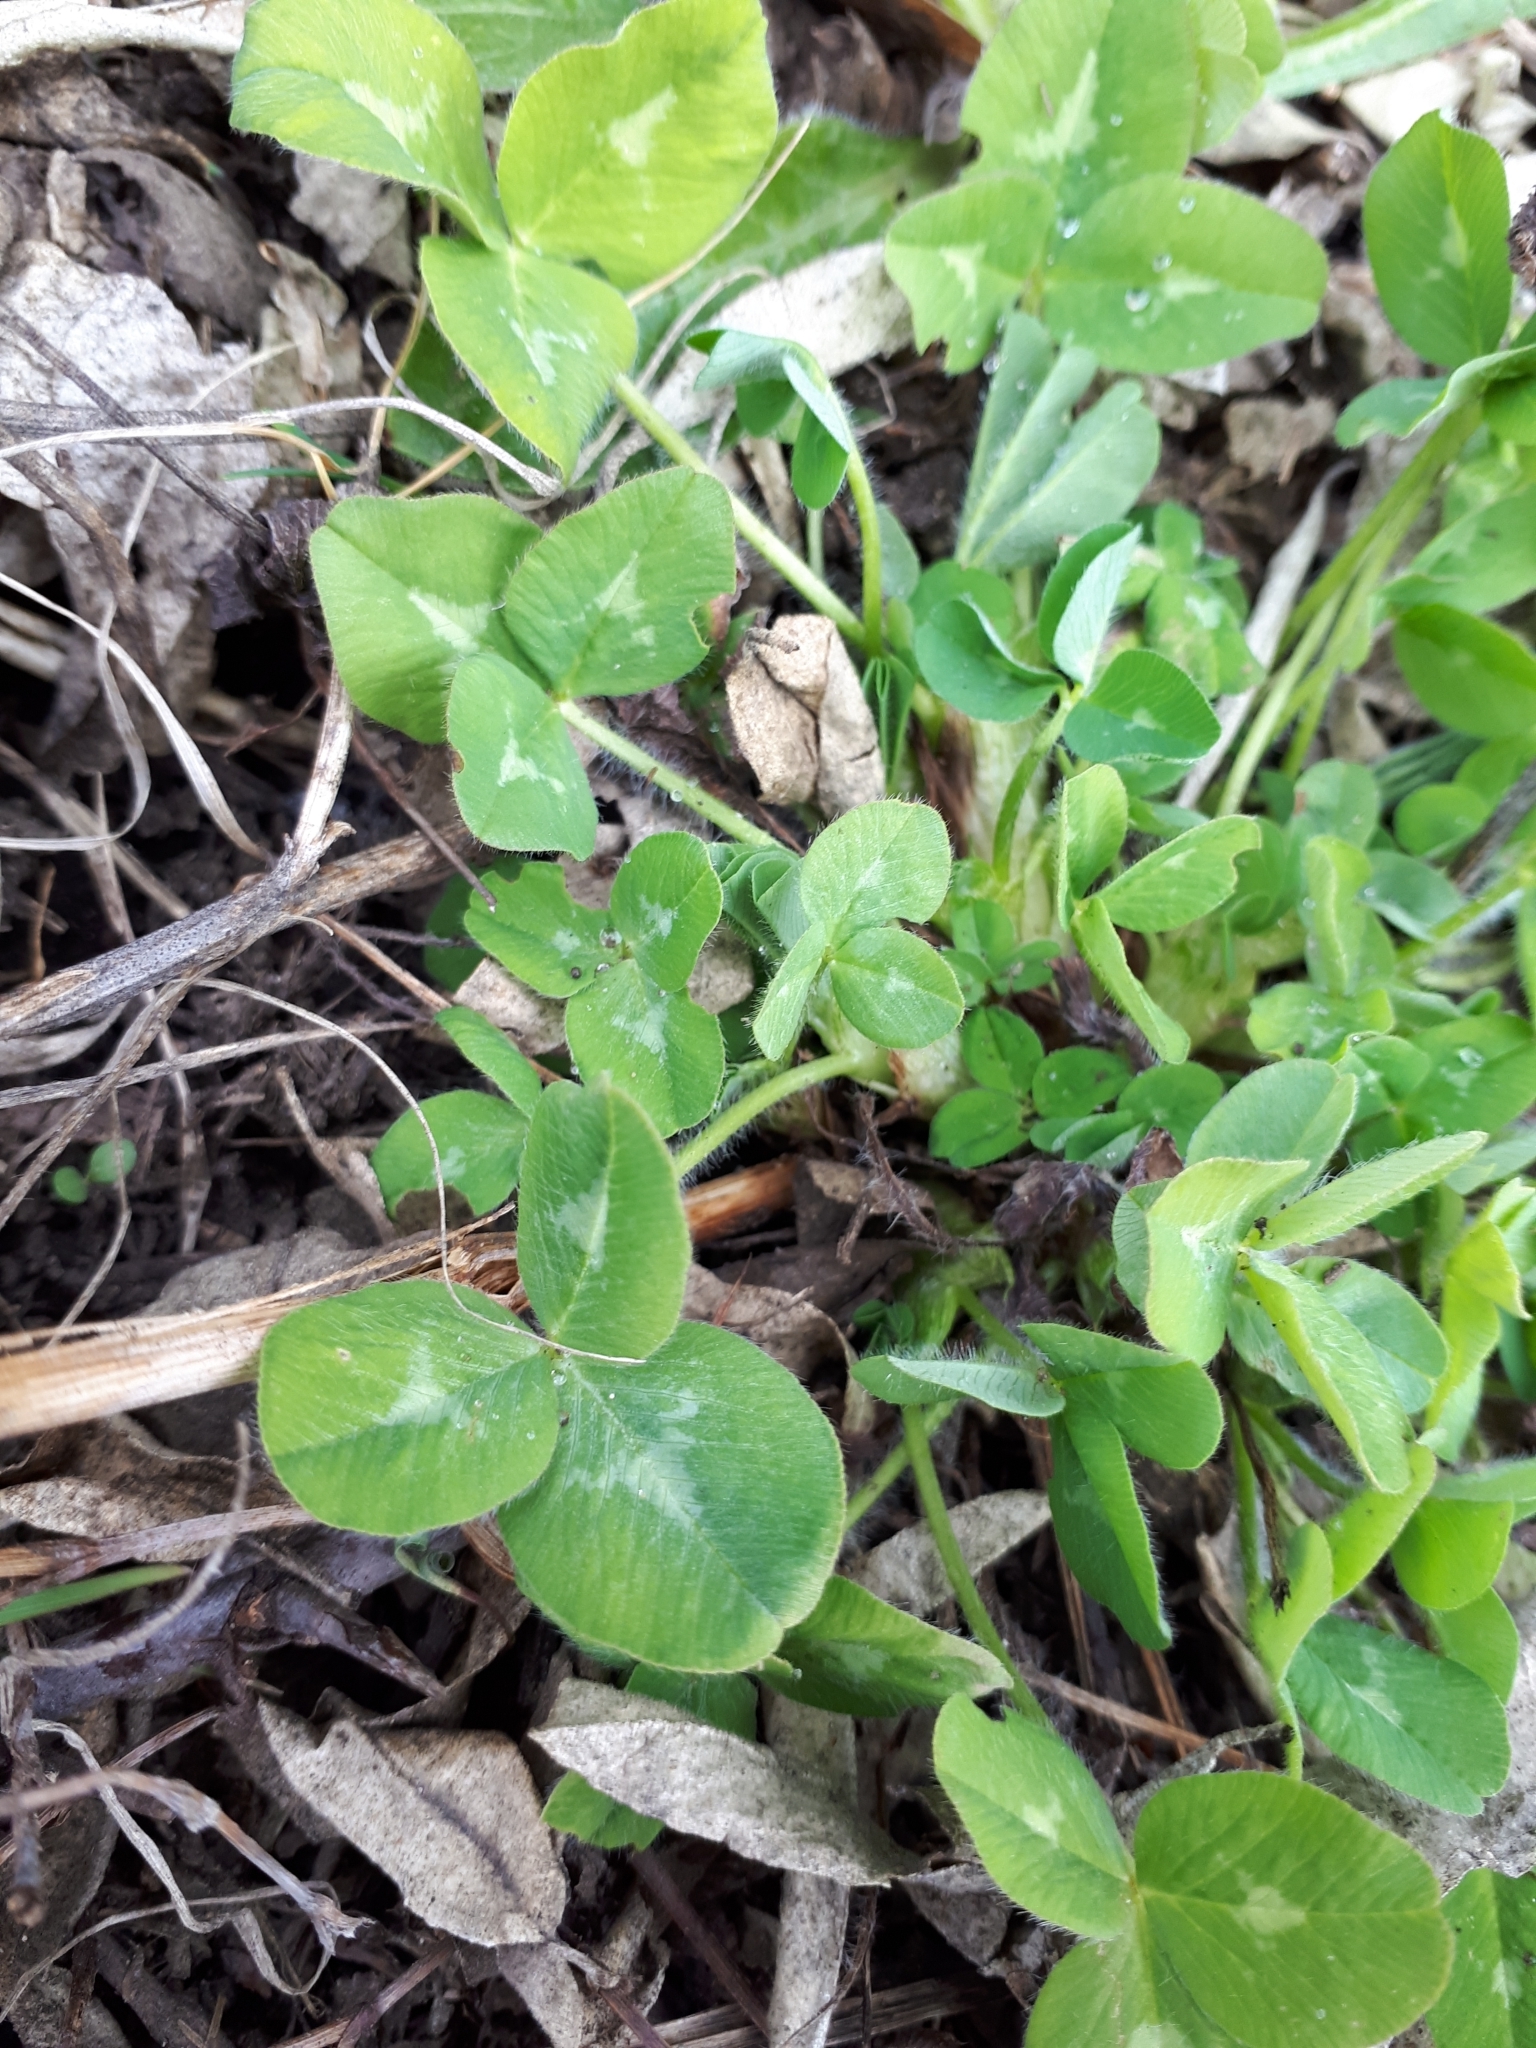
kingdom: Plantae
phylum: Tracheophyta
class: Magnoliopsida
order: Fabales
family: Fabaceae
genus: Trifolium
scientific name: Trifolium repens
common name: White clover
